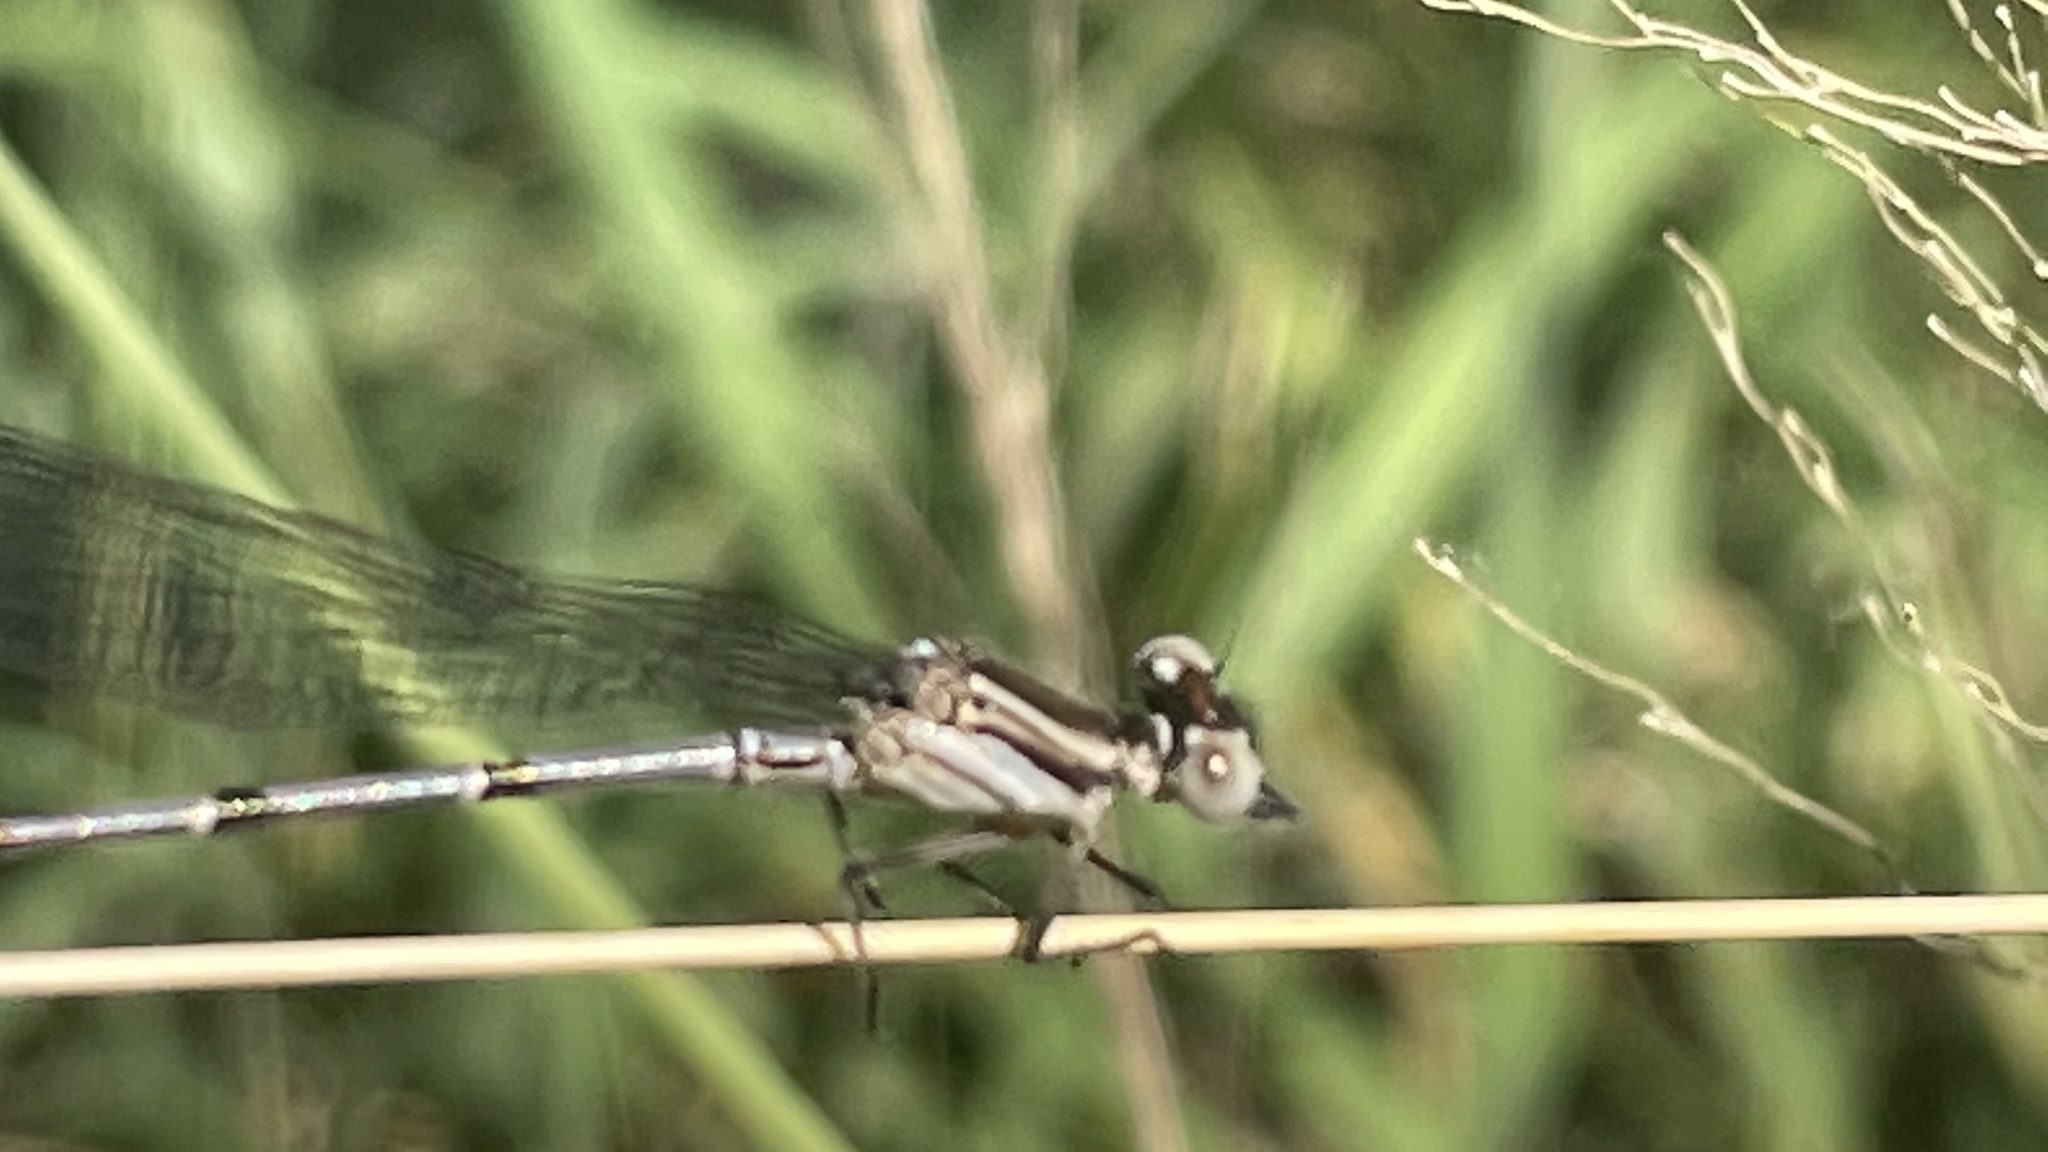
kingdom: Animalia
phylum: Arthropoda
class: Insecta
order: Odonata
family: Coenagrionidae
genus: Argia
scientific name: Argia oenea
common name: Fiery-eyed dancer
